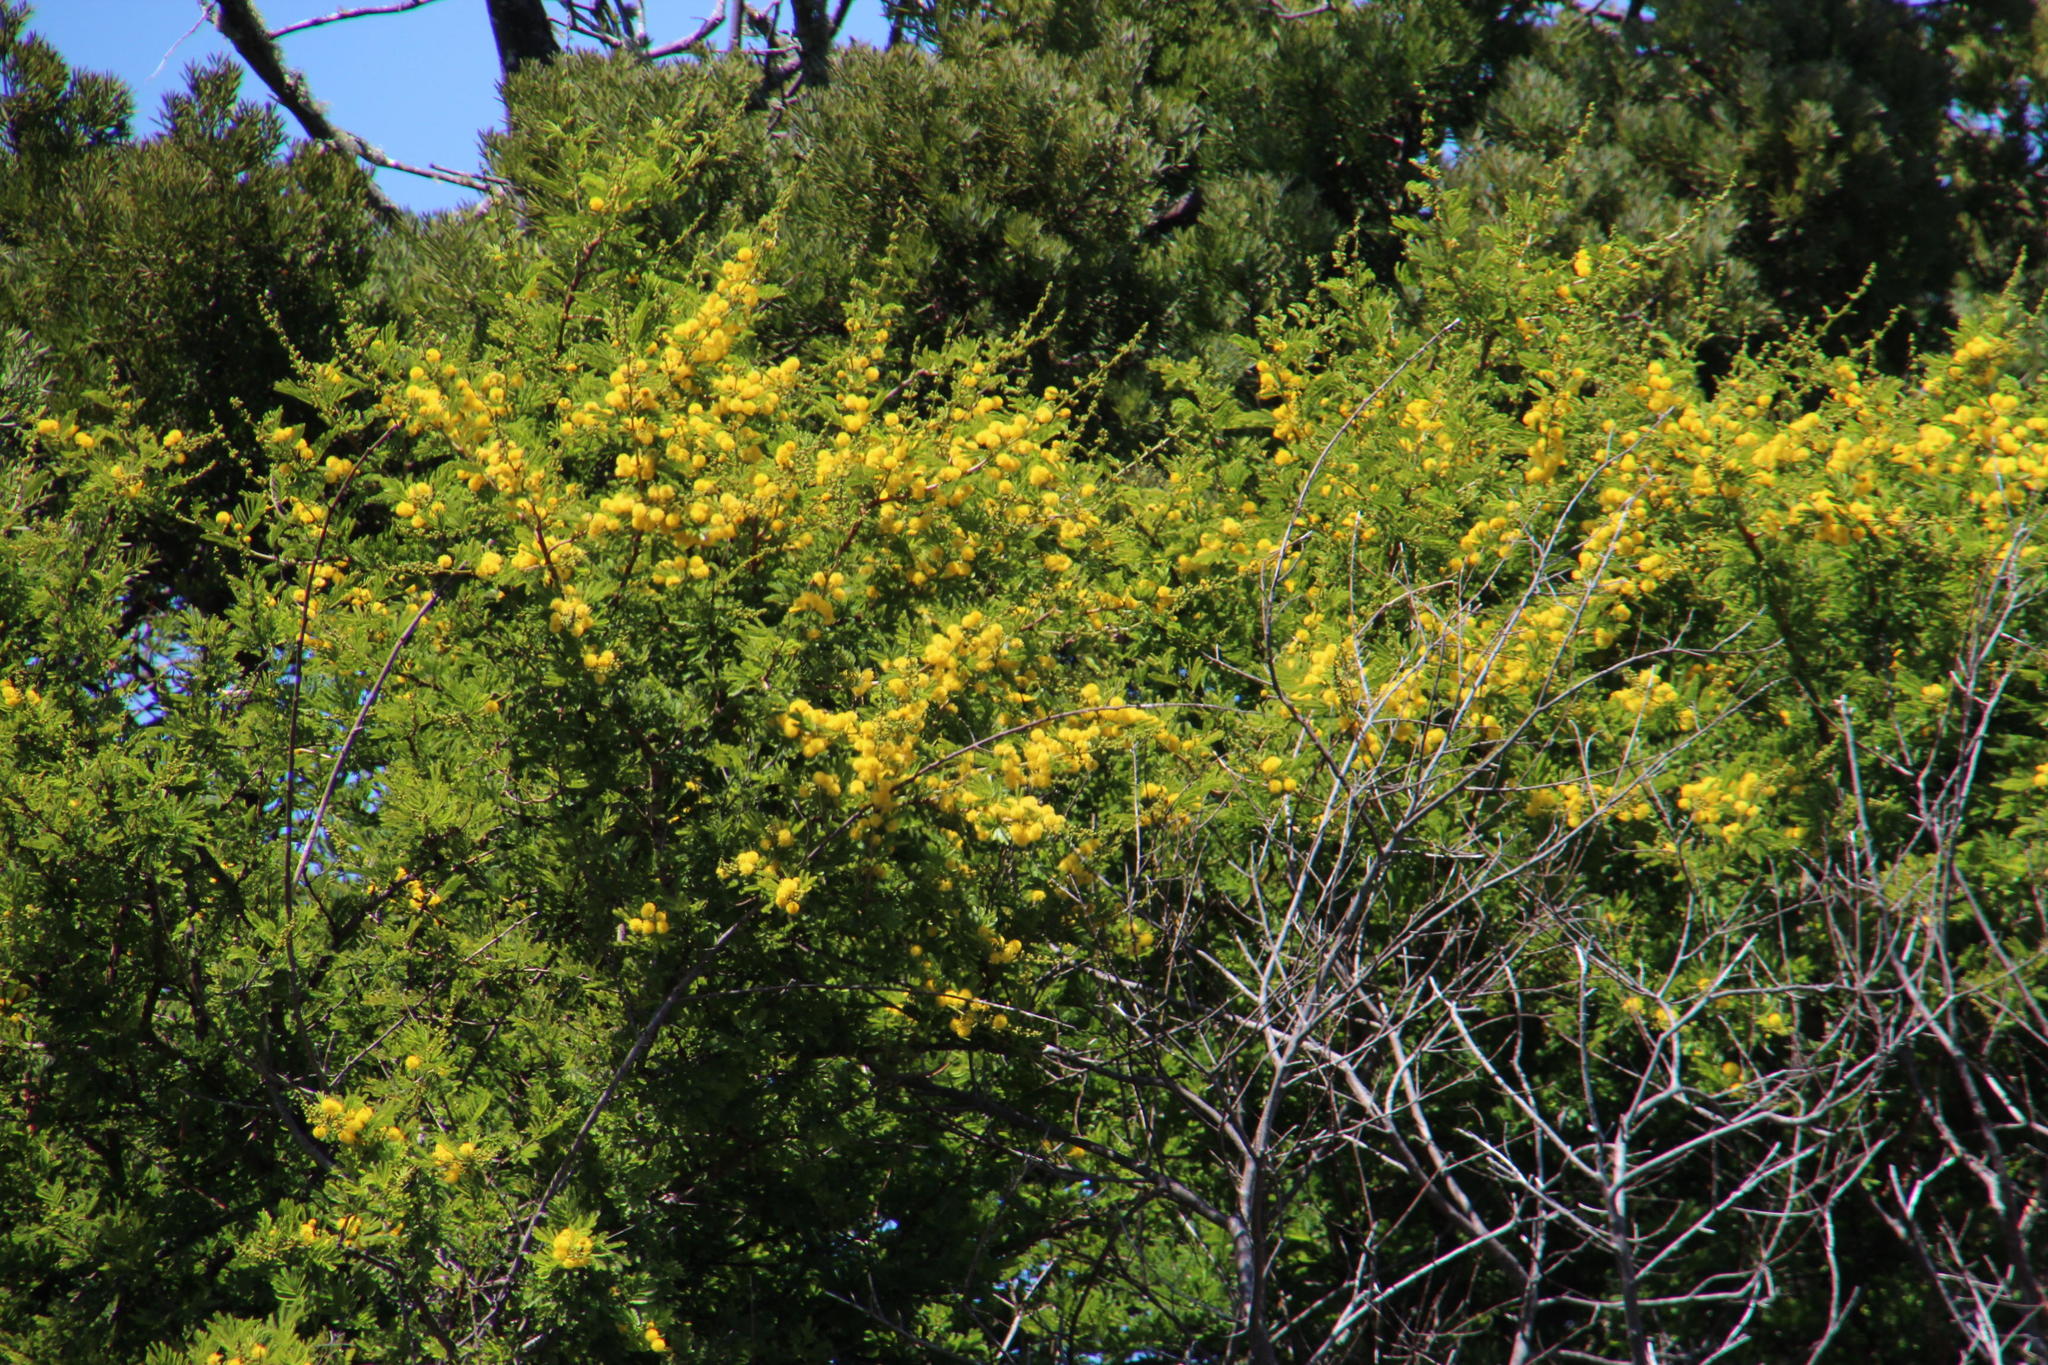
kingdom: Plantae
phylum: Tracheophyta
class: Magnoliopsida
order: Fabales
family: Fabaceae
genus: Vachellia
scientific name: Vachellia karroo
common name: Sweet thorn
